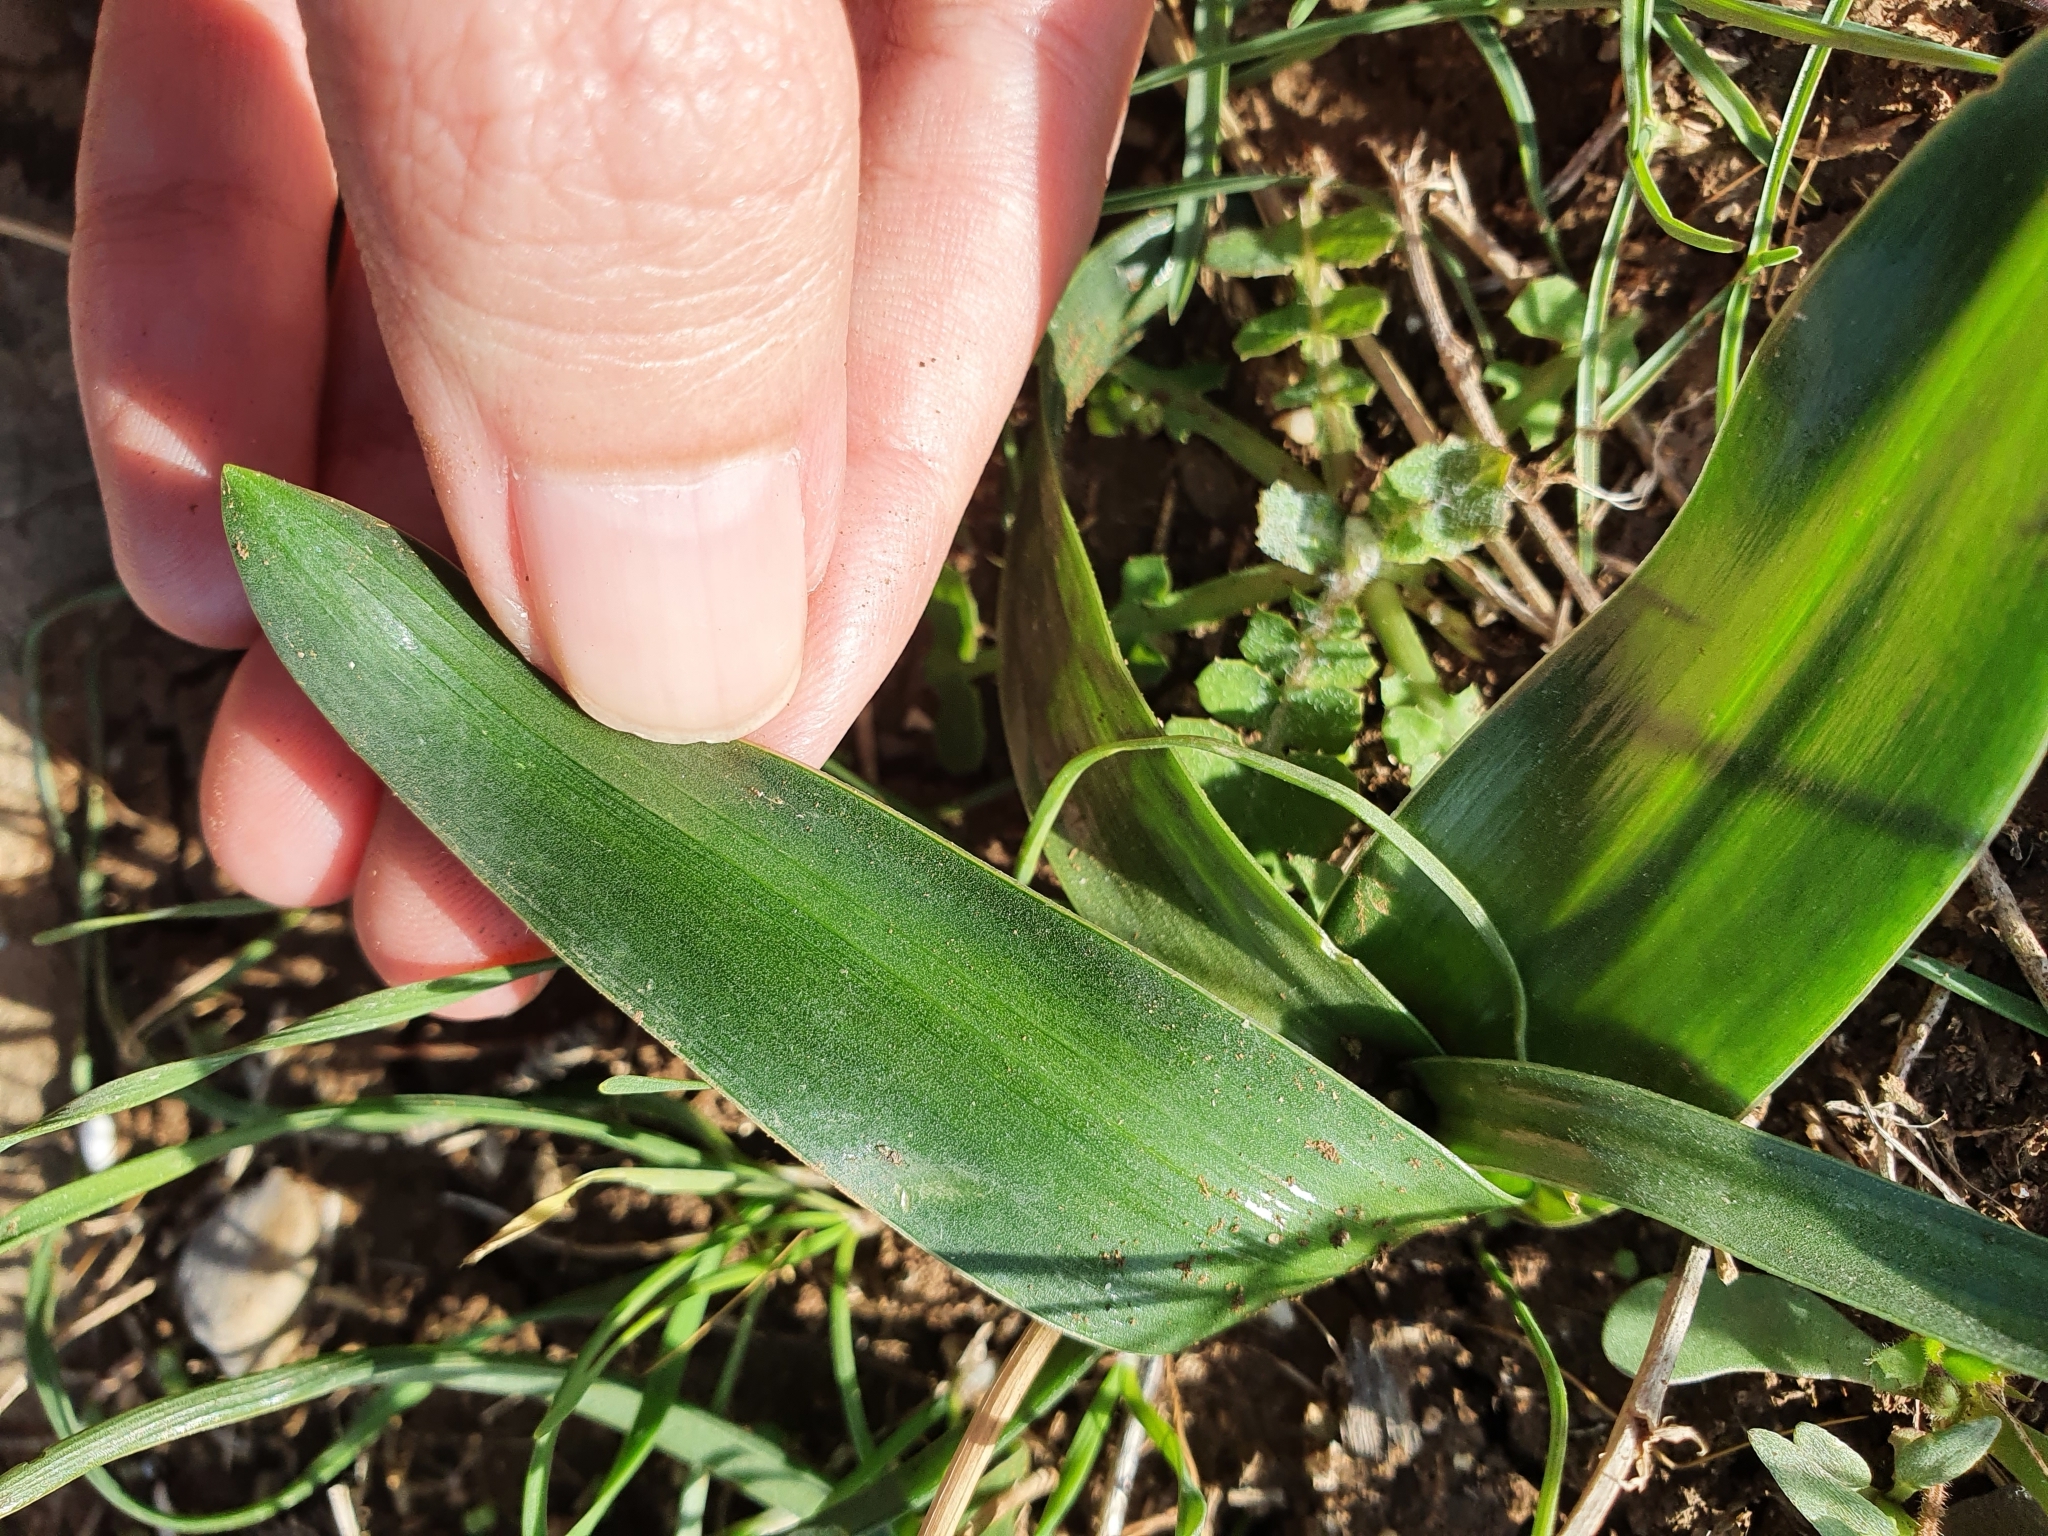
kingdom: Plantae
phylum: Tracheophyta
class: Liliopsida
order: Asparagales
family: Asparagaceae
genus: Prospero
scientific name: Prospero obtusifolium
